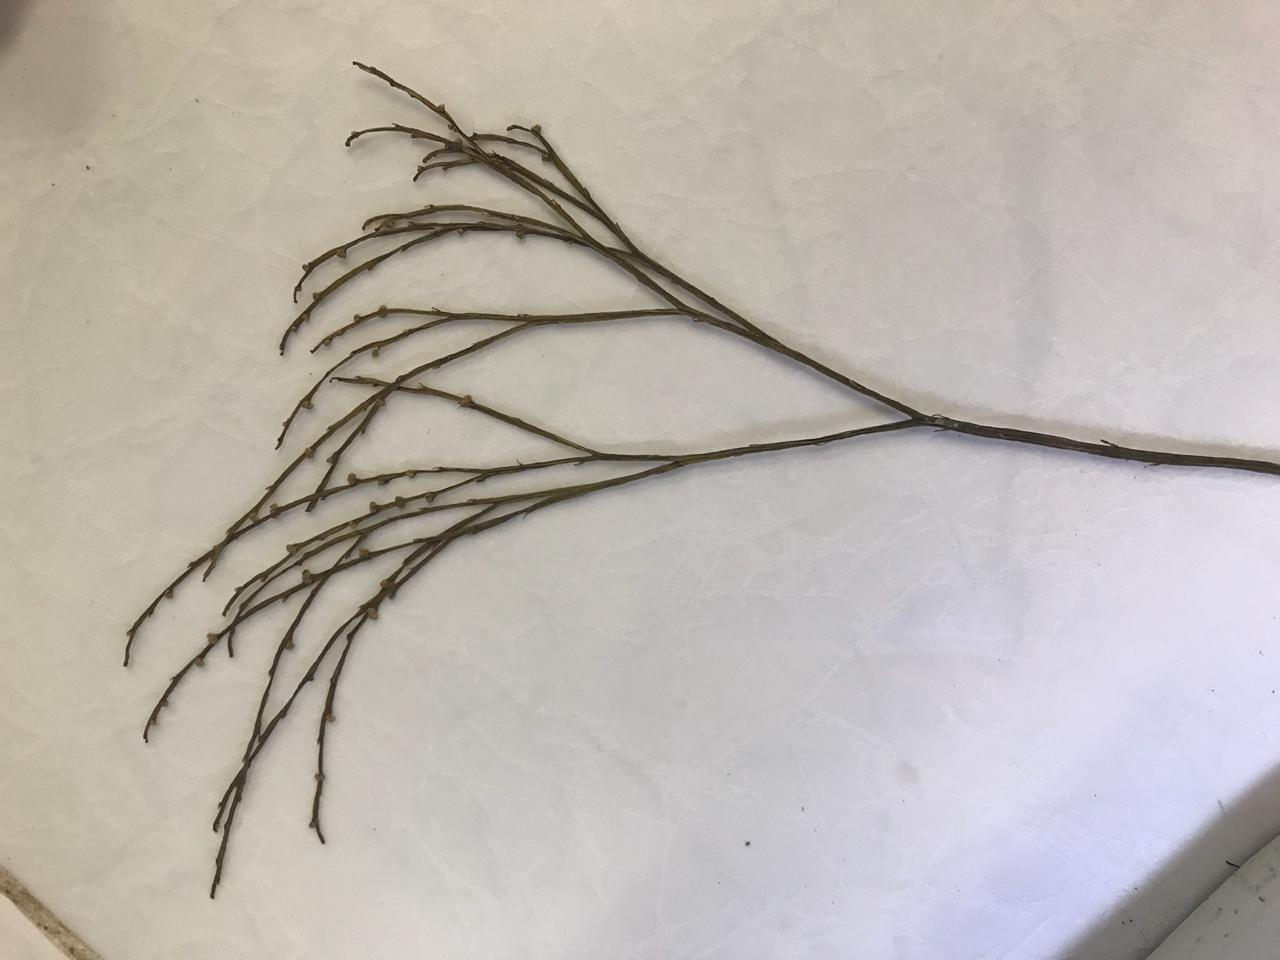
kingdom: Plantae
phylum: Tracheophyta
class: Polypodiopsida
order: Psilotales
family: Psilotaceae
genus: Psilotum
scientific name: Psilotum nudum
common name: Skeleton fork fern
